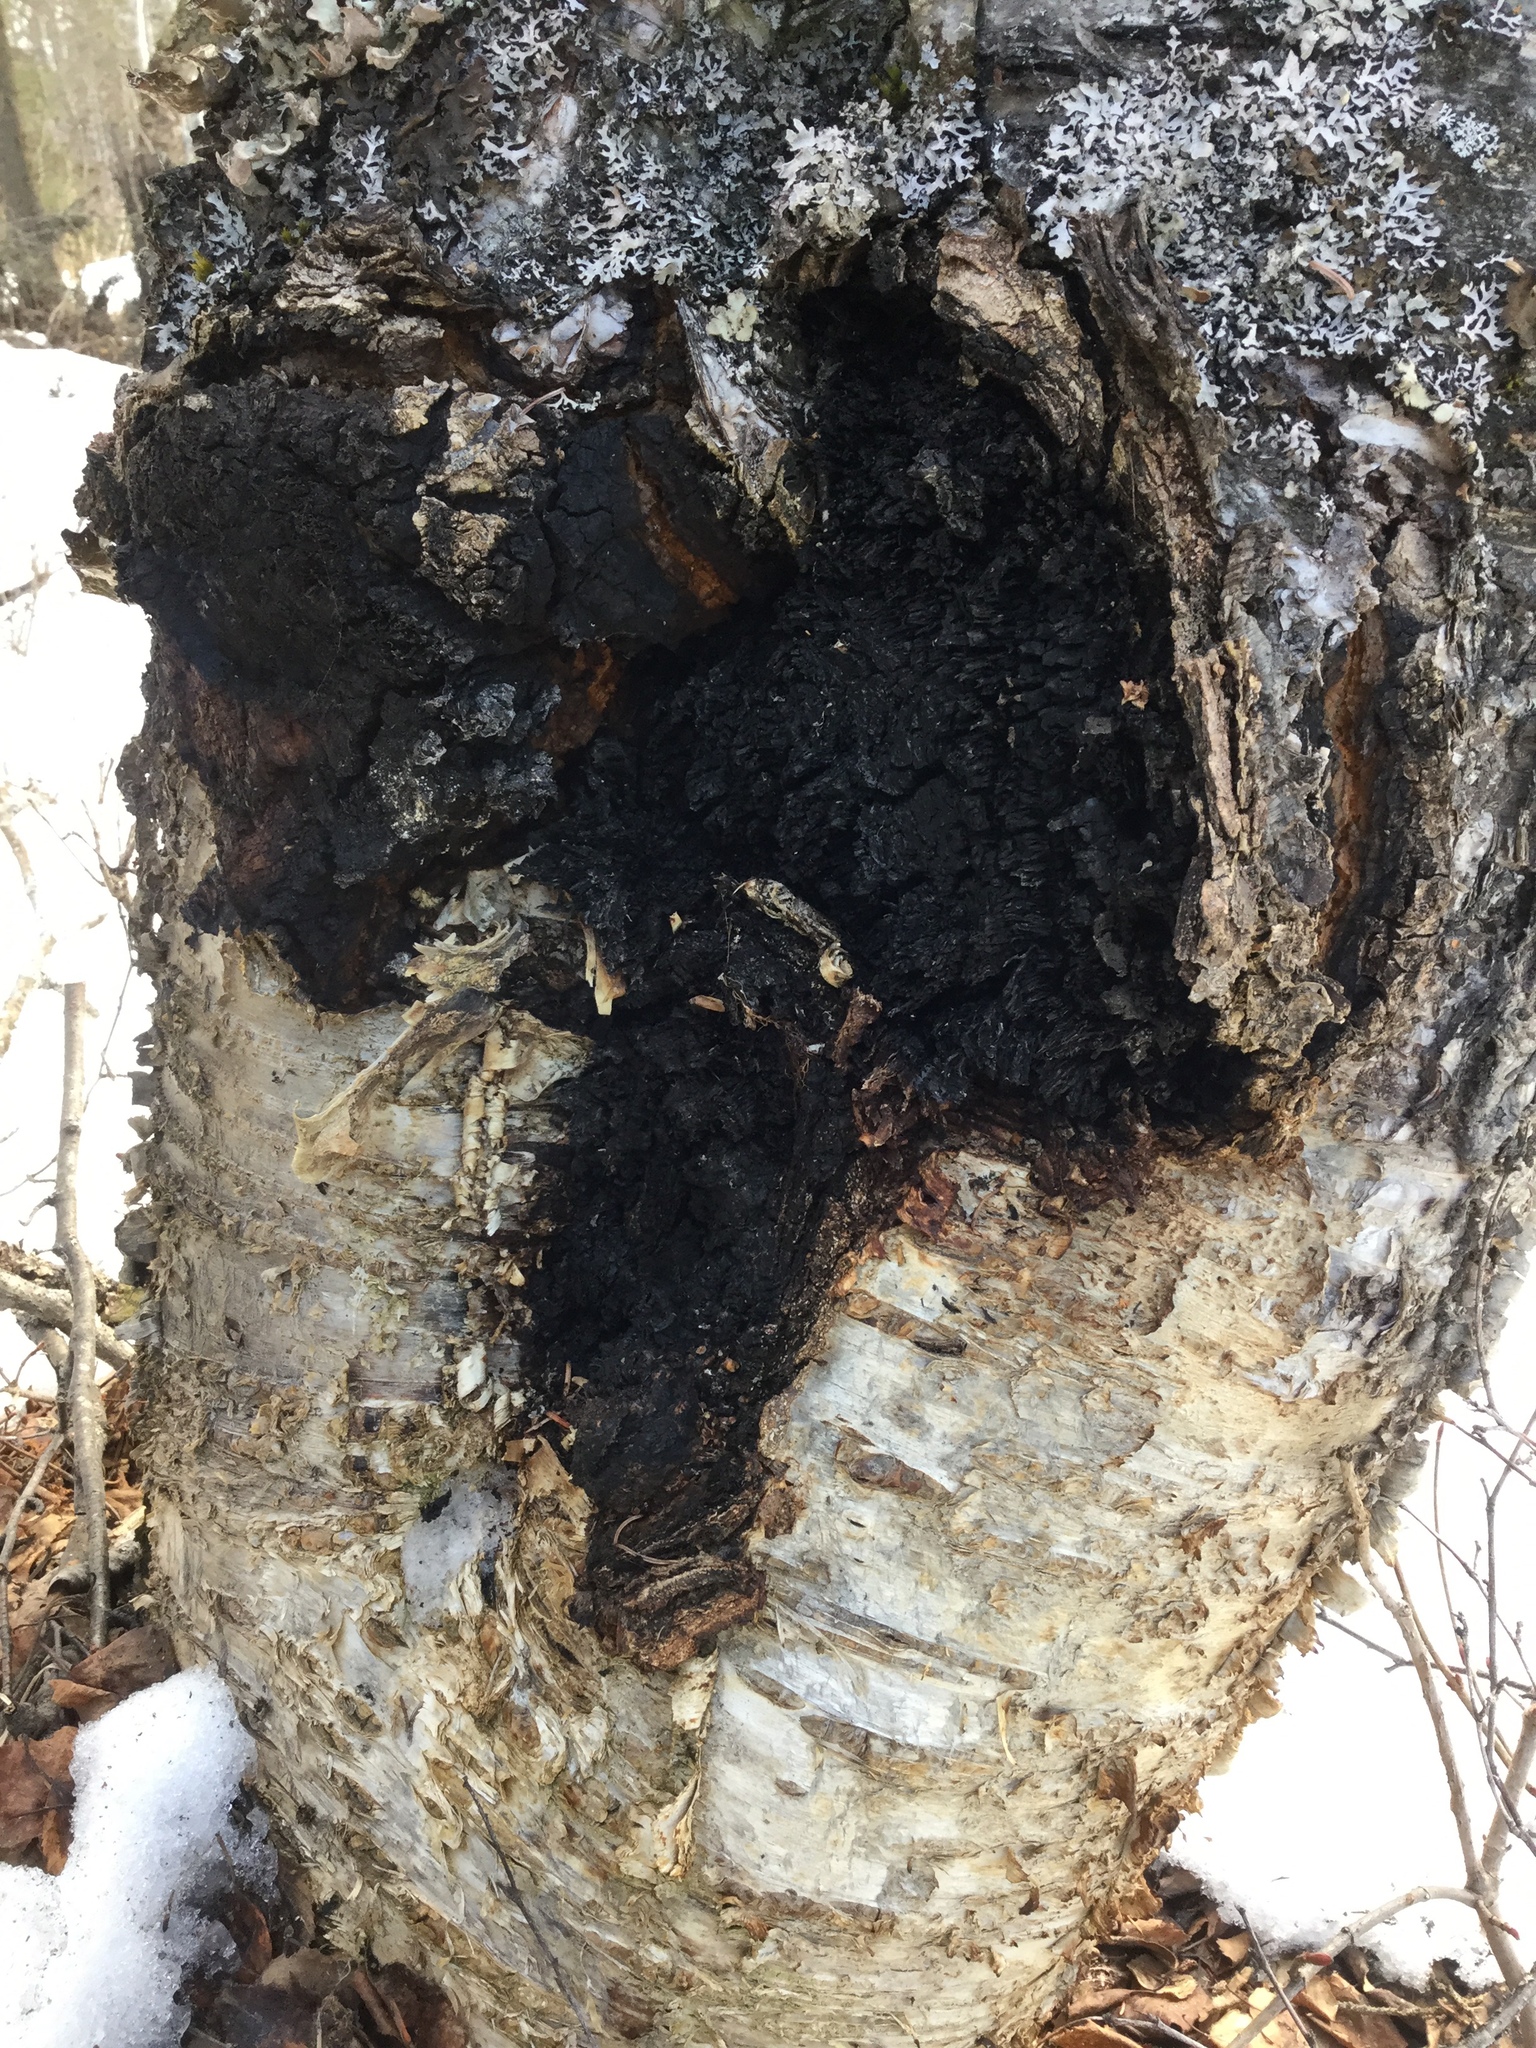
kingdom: Fungi
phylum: Basidiomycota
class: Agaricomycetes
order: Hymenochaetales
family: Hymenochaetaceae
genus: Inonotus
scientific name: Inonotus obliquus
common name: Chaga
